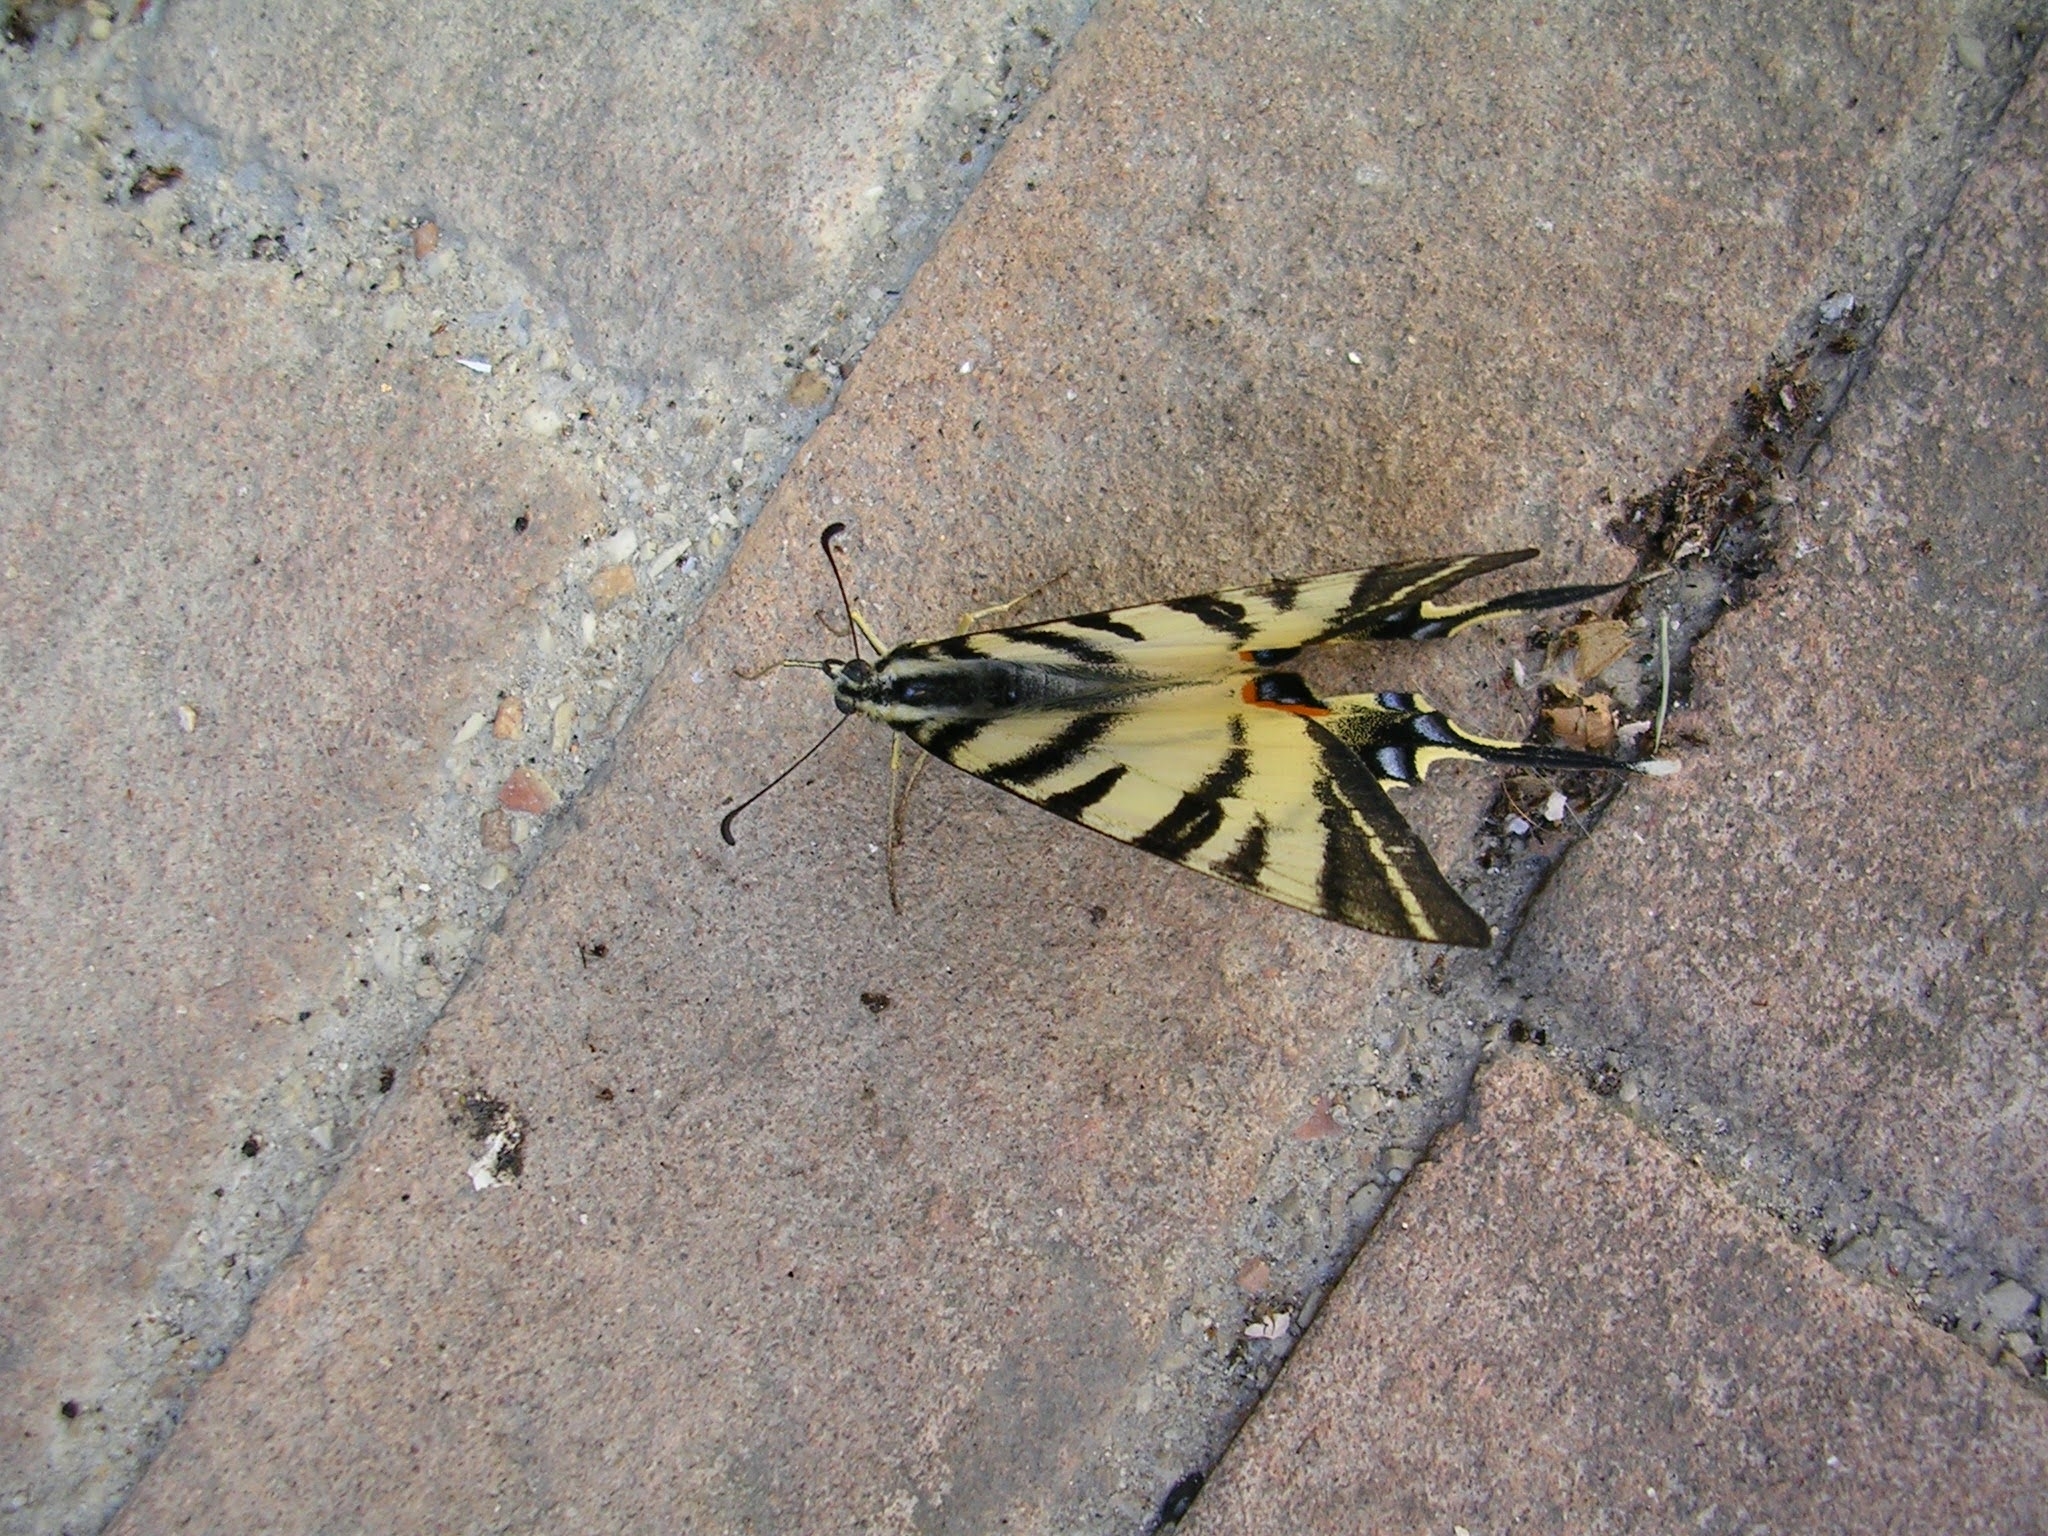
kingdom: Animalia
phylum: Arthropoda
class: Insecta
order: Lepidoptera
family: Papilionidae
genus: Iphiclides
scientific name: Iphiclides podalirius
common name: Scarce swallowtail
